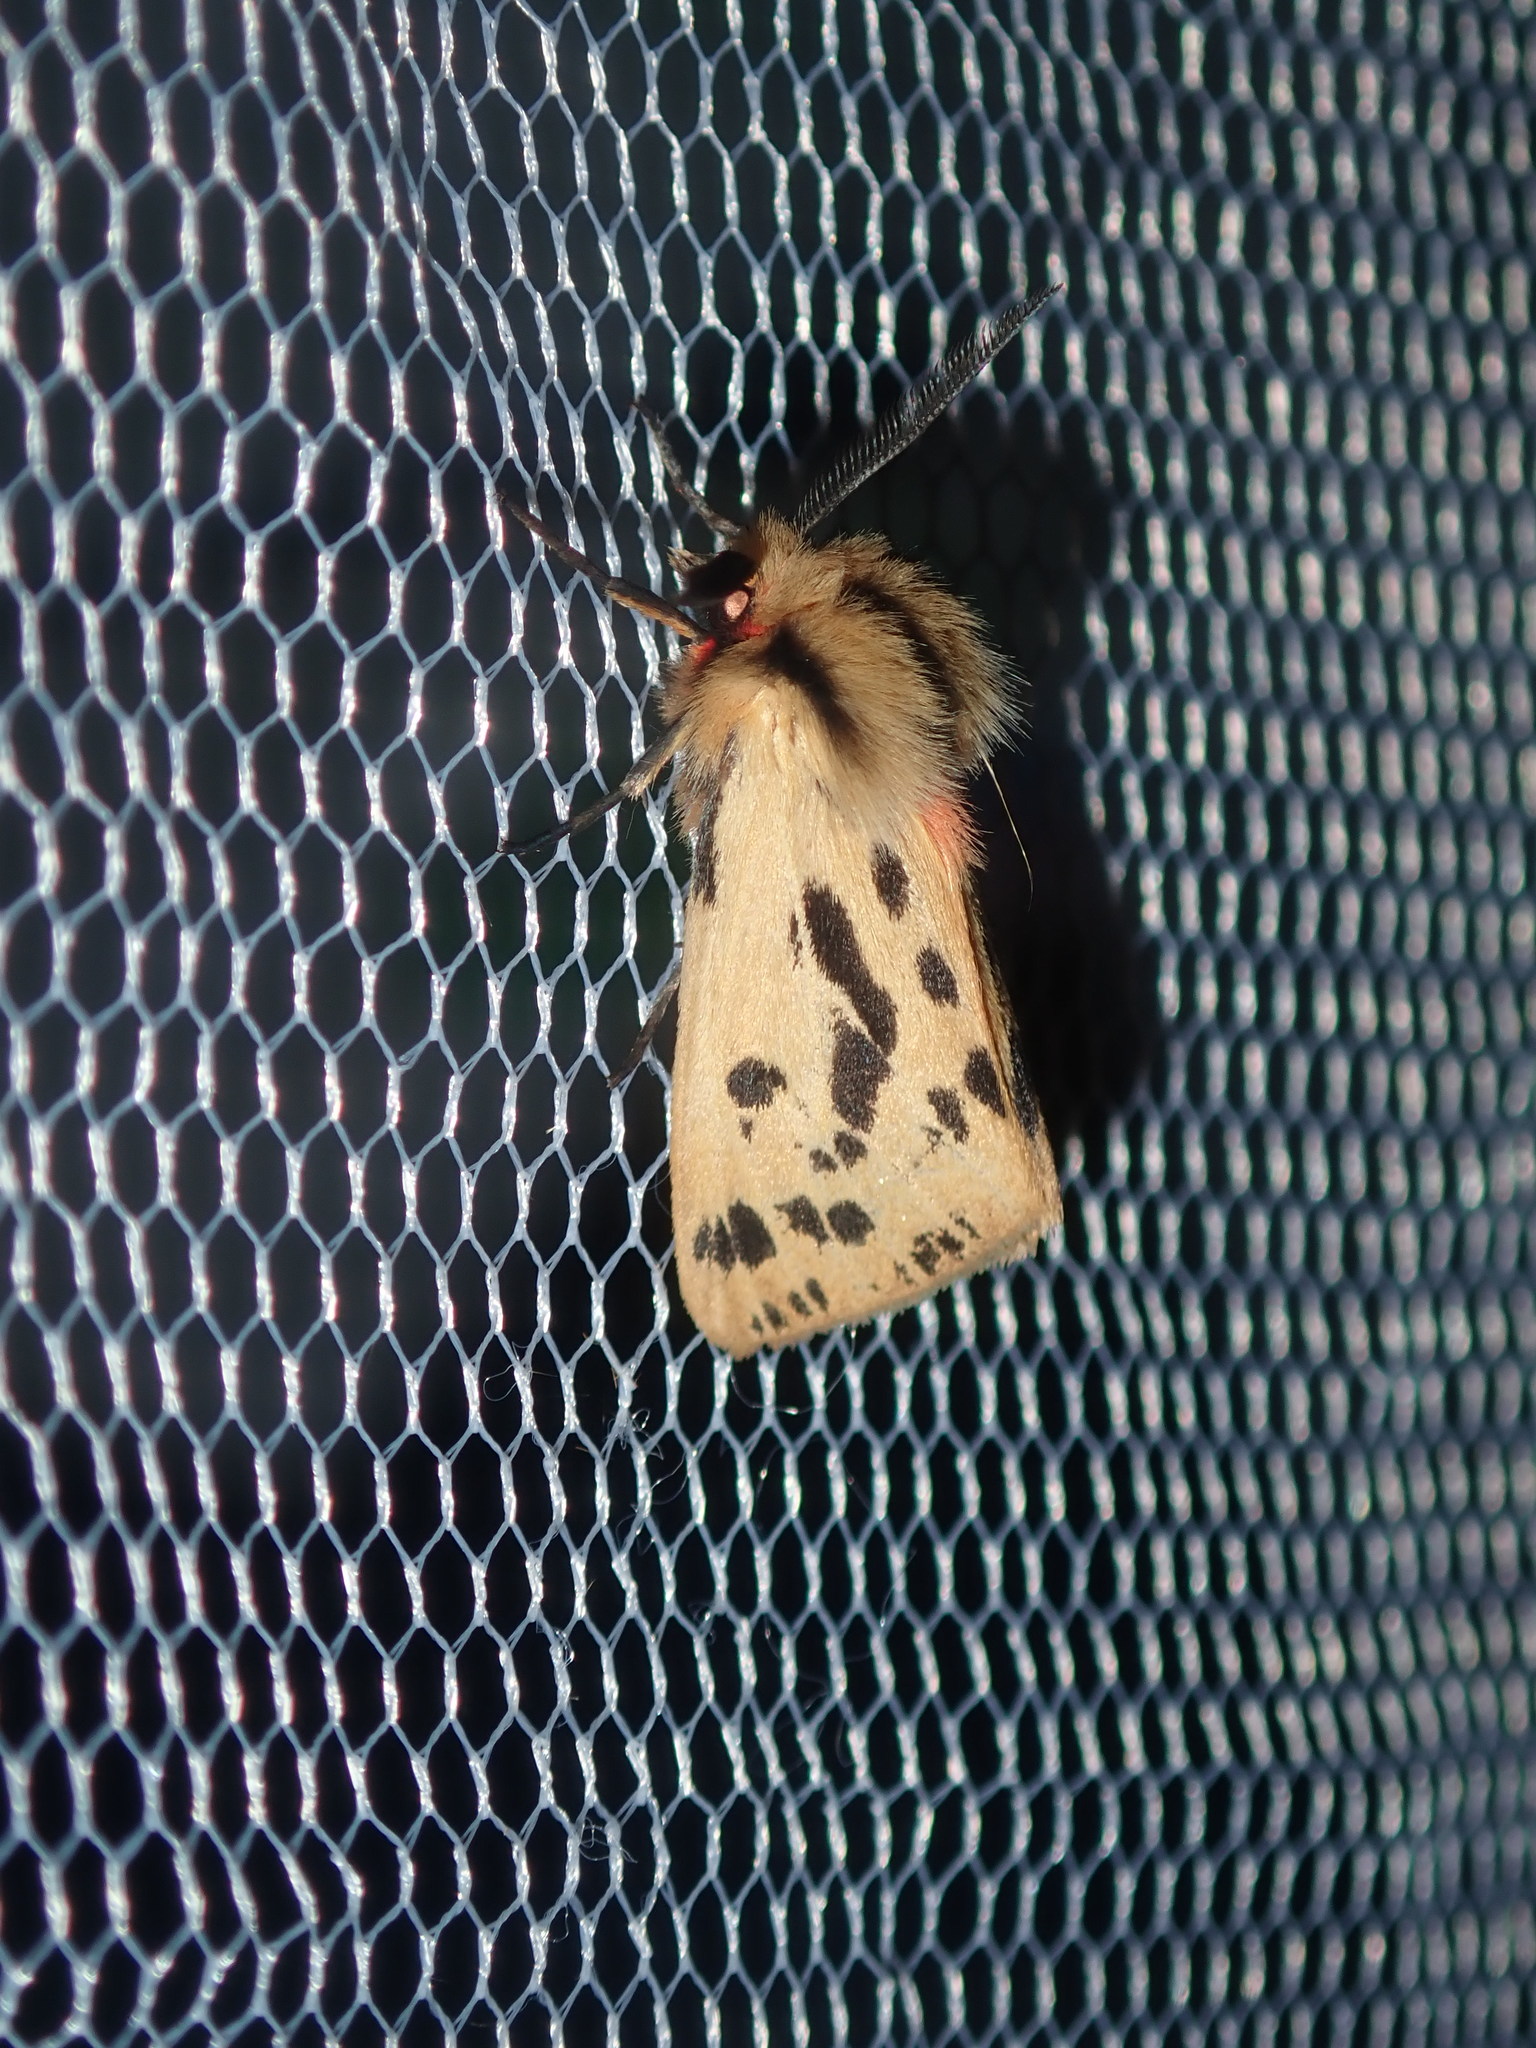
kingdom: Animalia
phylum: Arthropoda
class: Insecta
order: Lepidoptera
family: Erebidae
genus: Ardices
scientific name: Ardices curvata
